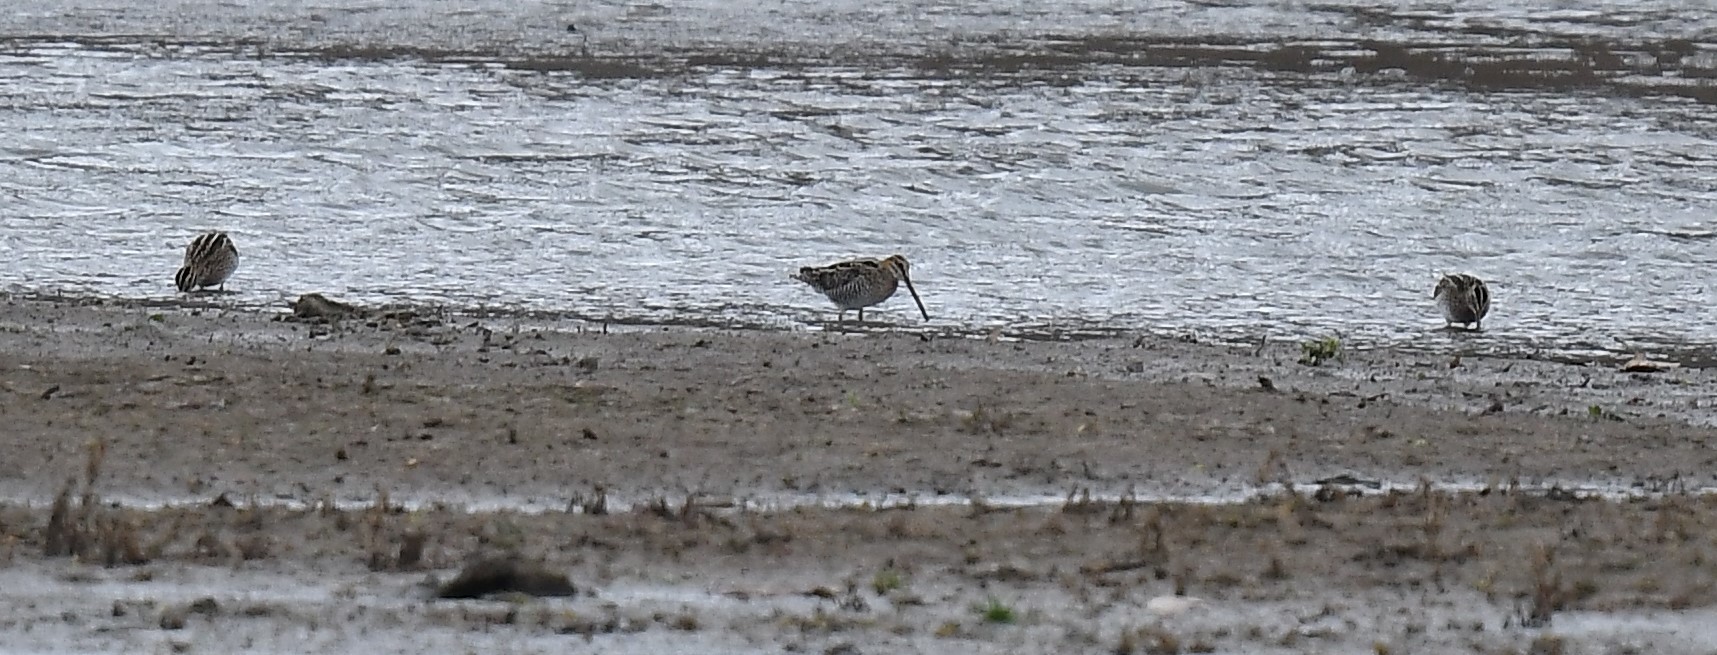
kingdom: Animalia
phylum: Chordata
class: Aves
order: Charadriiformes
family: Scolopacidae
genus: Gallinago
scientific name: Gallinago delicata
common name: Wilson's snipe
